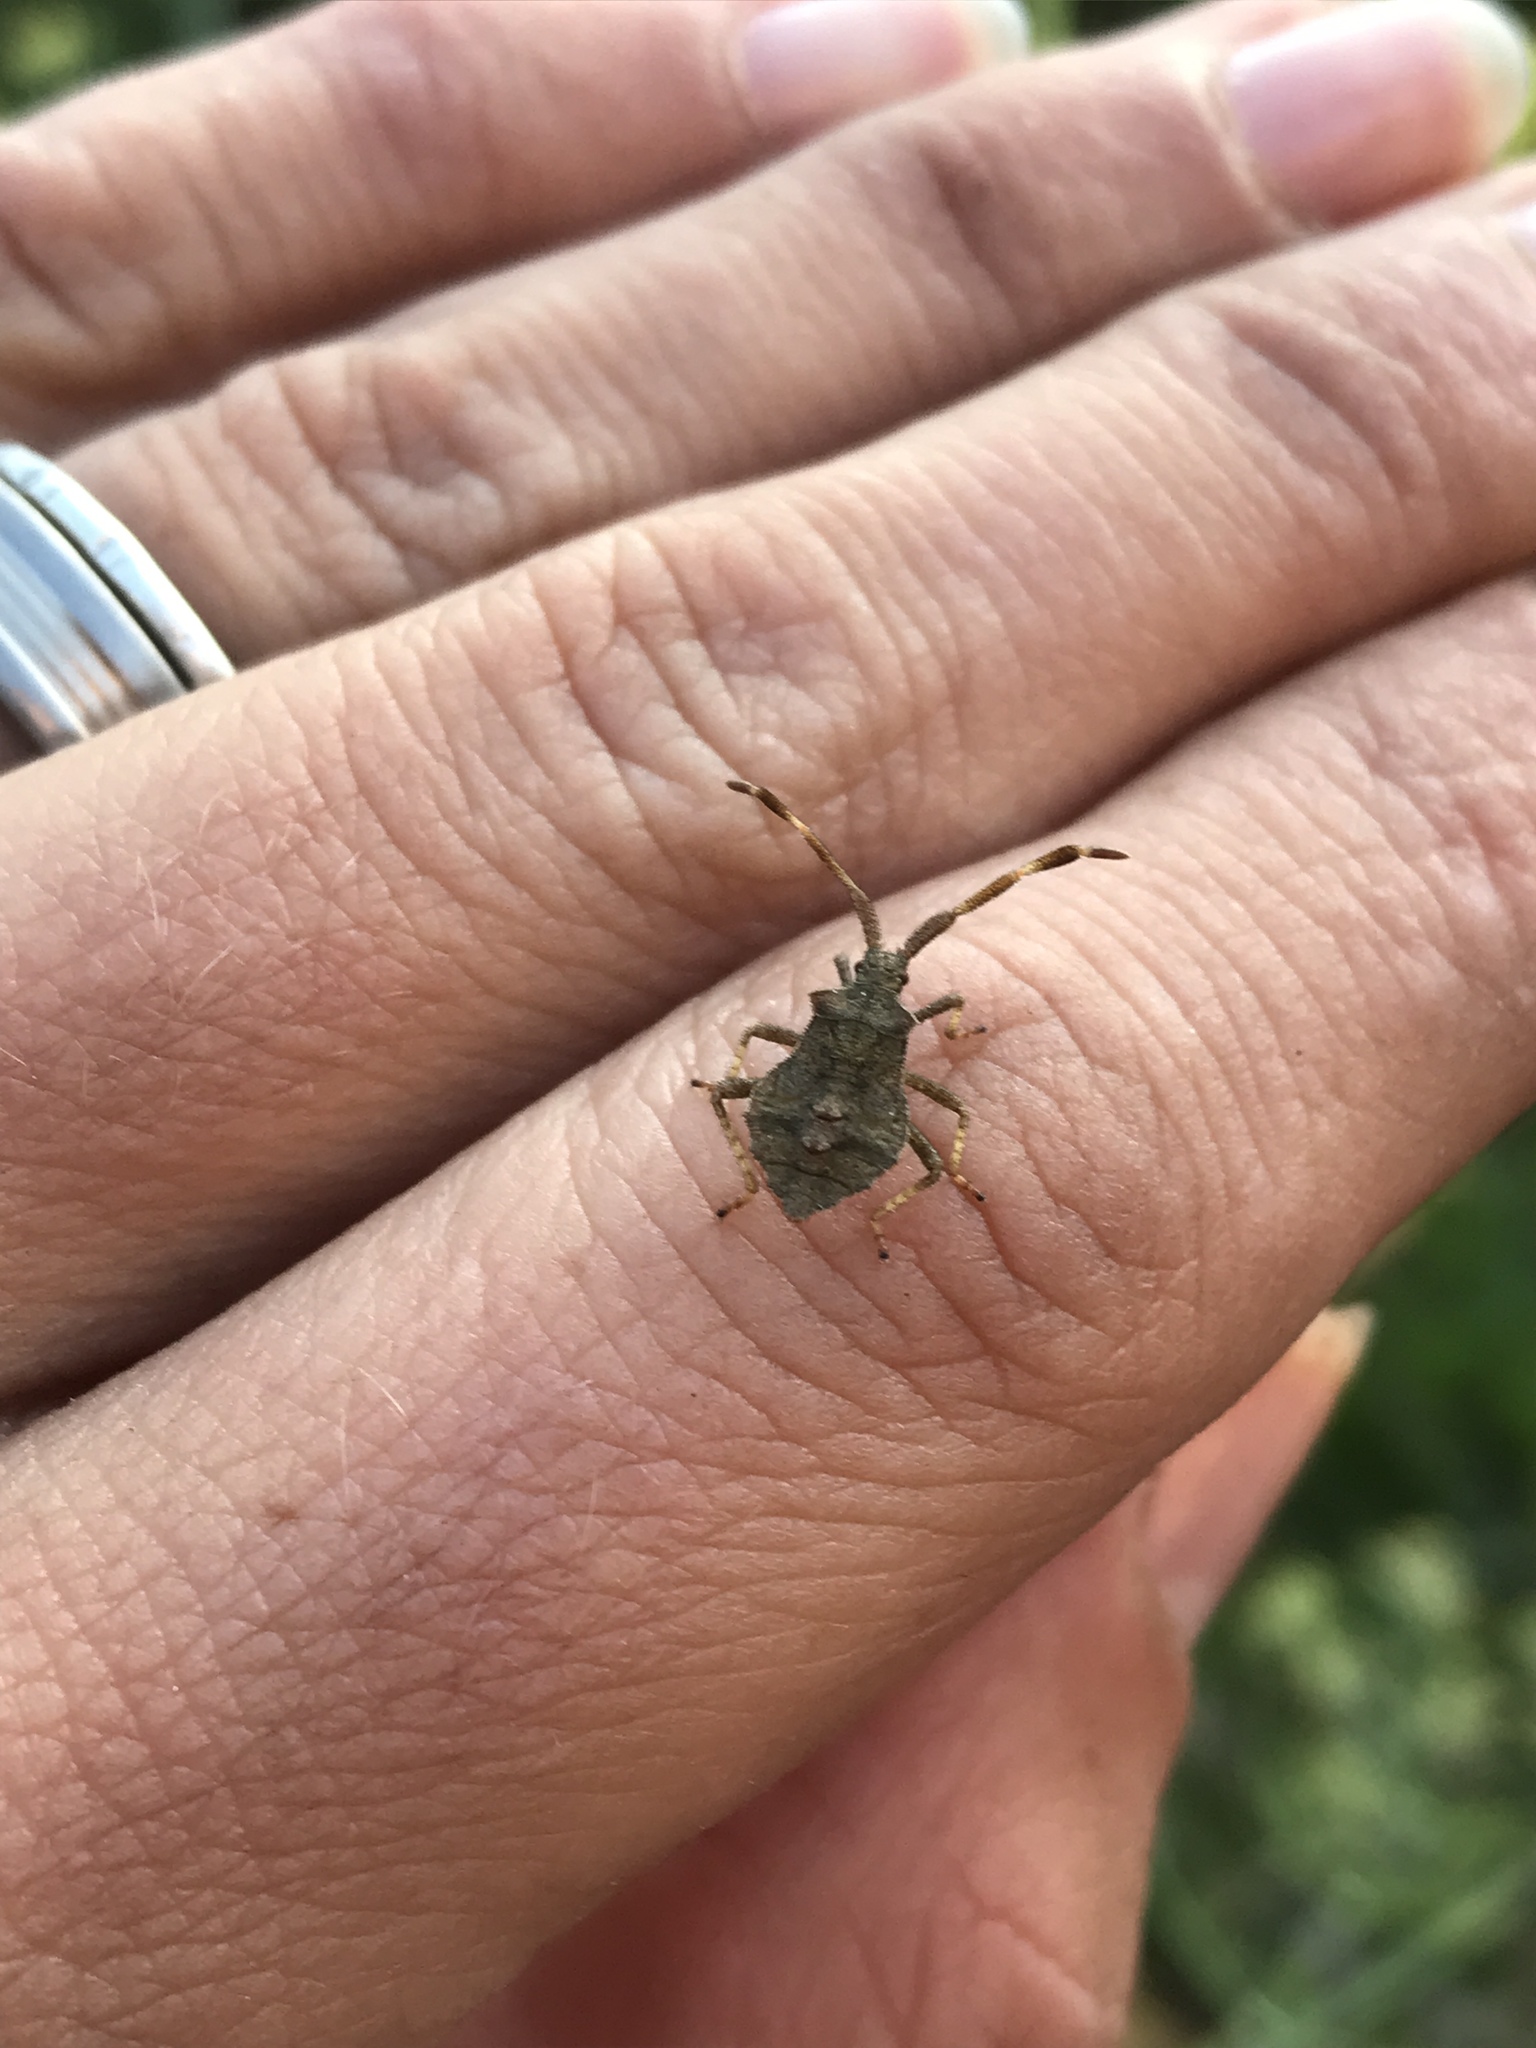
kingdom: Animalia
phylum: Arthropoda
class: Insecta
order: Hemiptera
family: Coreidae
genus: Coreus
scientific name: Coreus marginatus
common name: Dock bug
